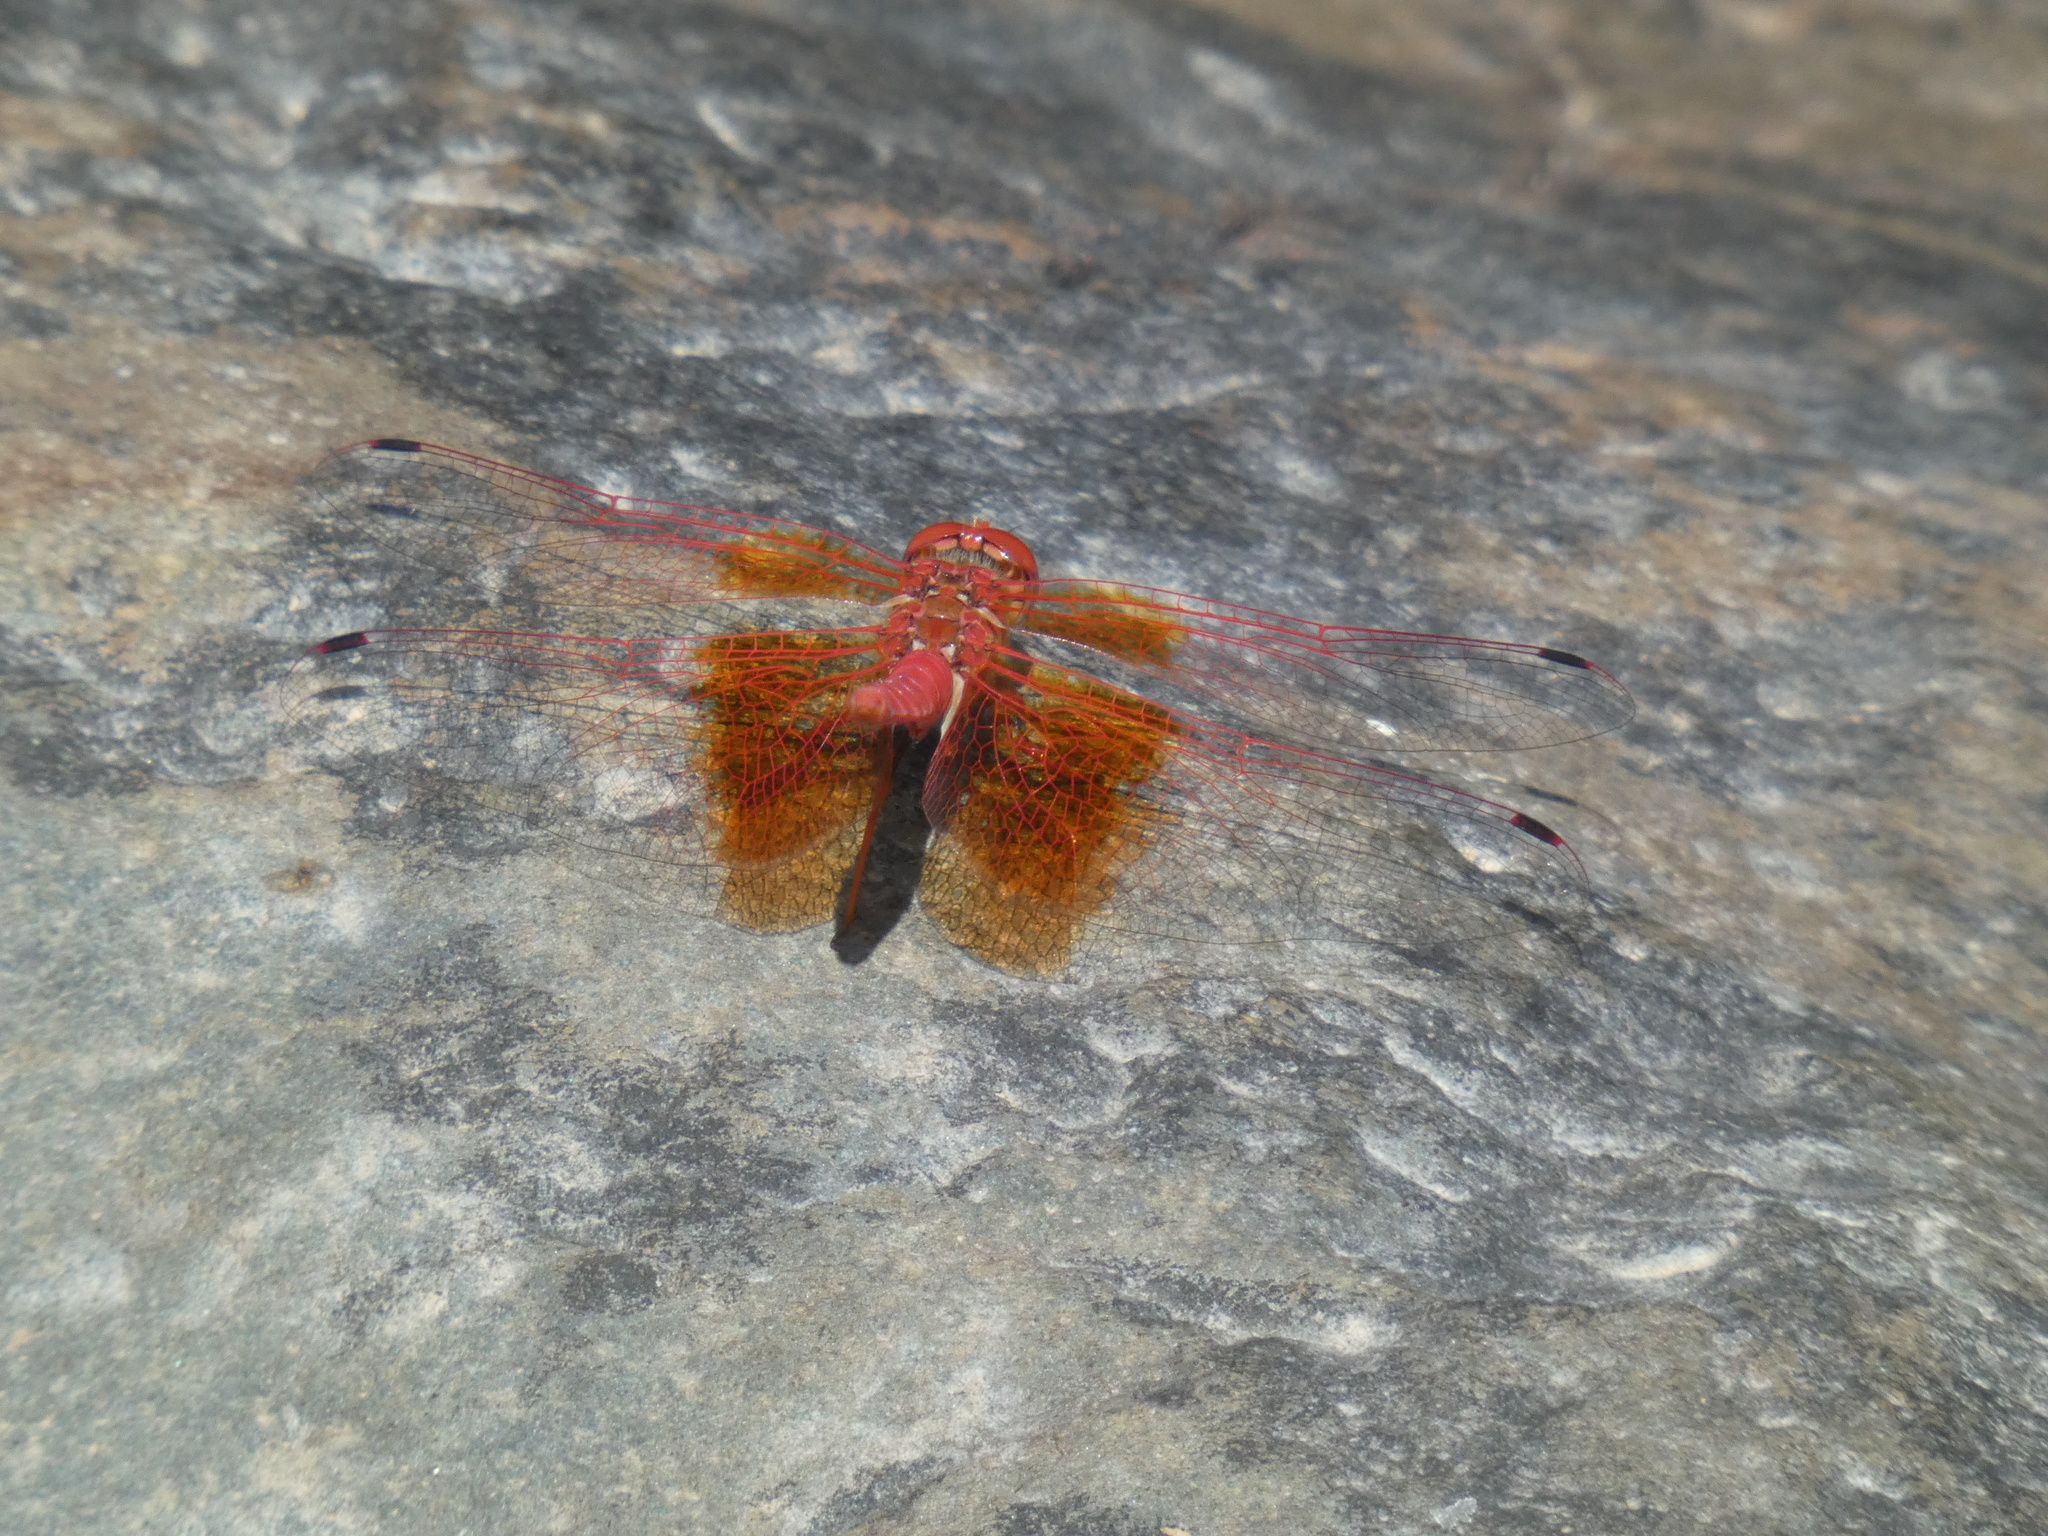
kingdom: Animalia
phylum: Arthropoda
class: Insecta
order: Odonata
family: Libellulidae
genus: Trithemis
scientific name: Trithemis kirbyi
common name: Kirby's dropwing
